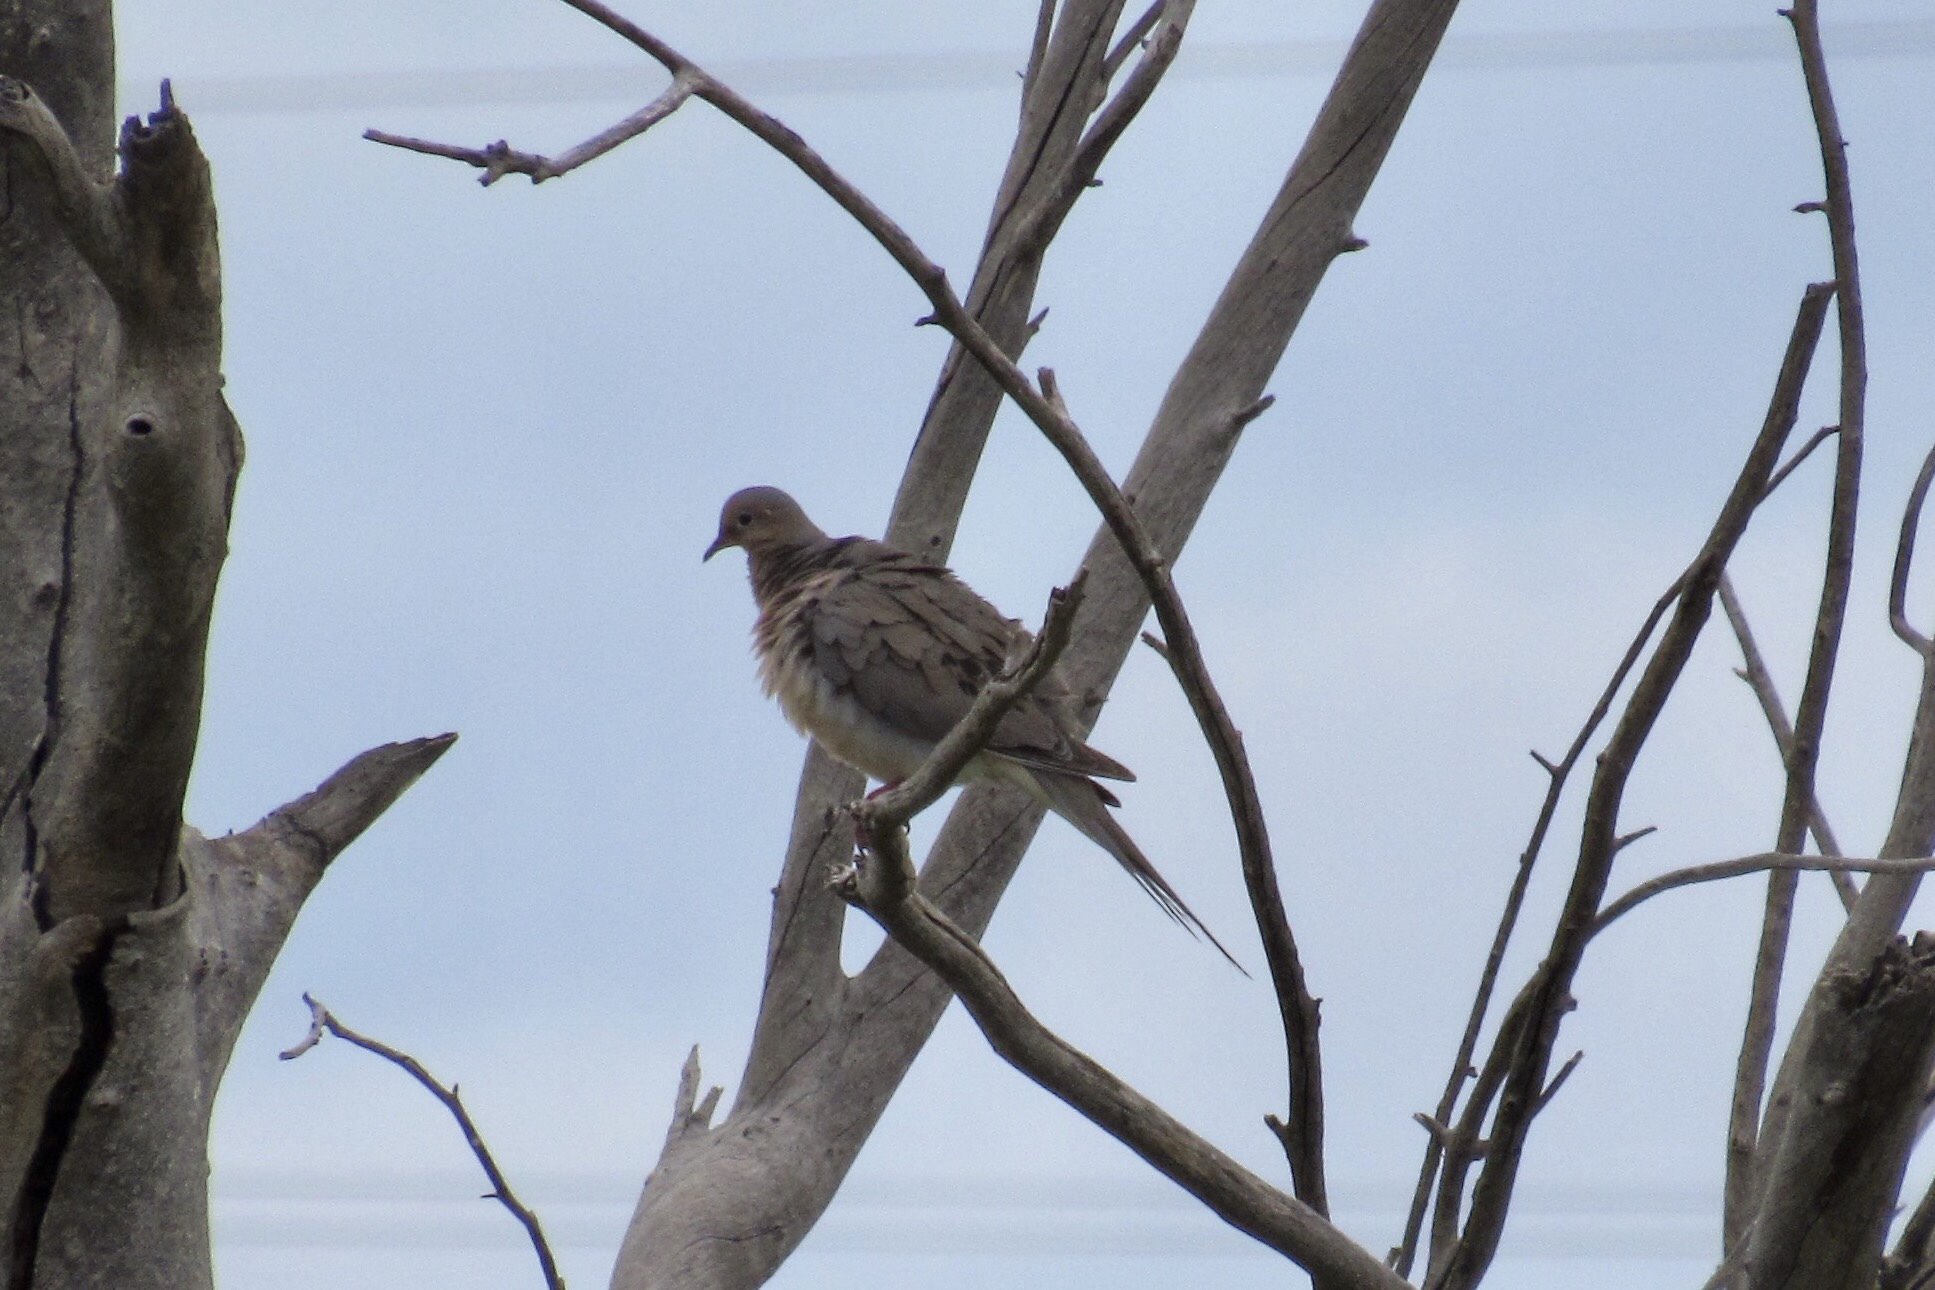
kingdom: Animalia
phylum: Chordata
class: Aves
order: Columbiformes
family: Columbidae
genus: Zenaida
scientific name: Zenaida macroura
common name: Mourning dove
